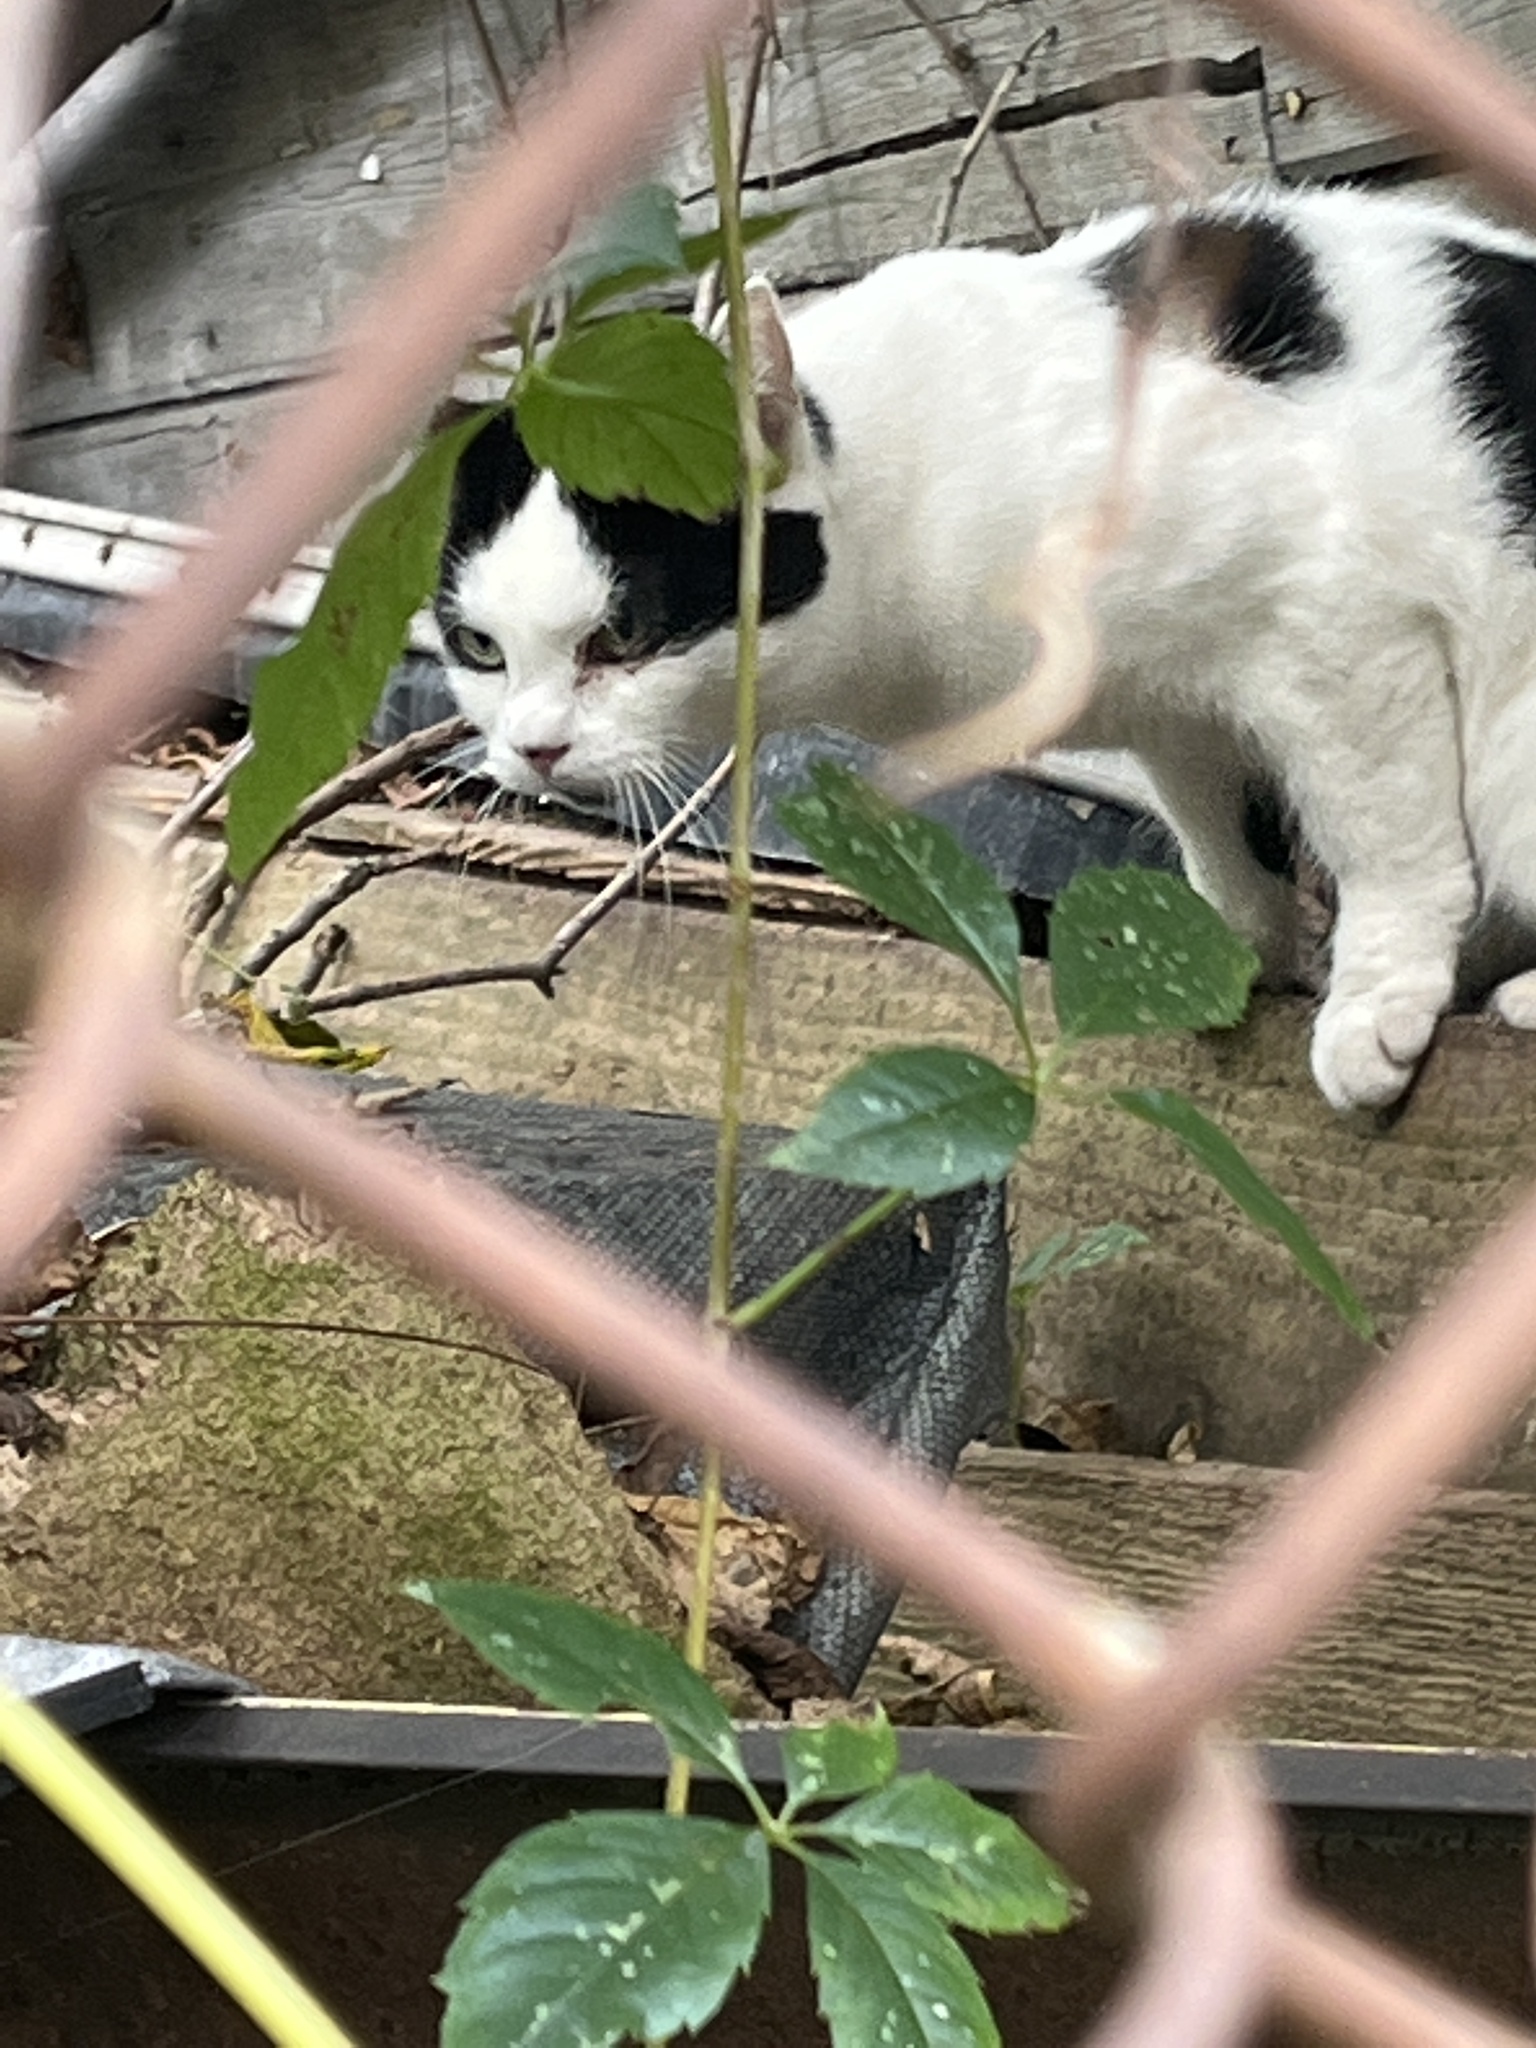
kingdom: Animalia
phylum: Chordata
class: Mammalia
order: Carnivora
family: Felidae
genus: Felis
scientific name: Felis catus
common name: Domestic cat
